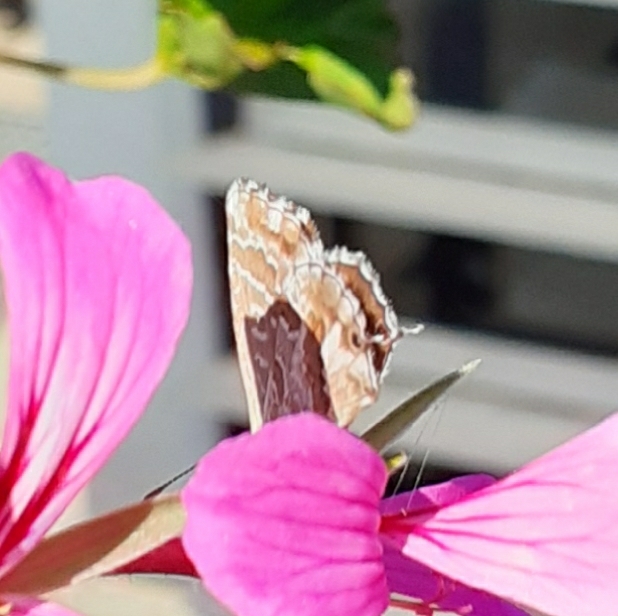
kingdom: Animalia
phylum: Arthropoda
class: Insecta
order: Lepidoptera
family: Lycaenidae
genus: Cacyreus
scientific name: Cacyreus marshalli
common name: Geranium bronze
